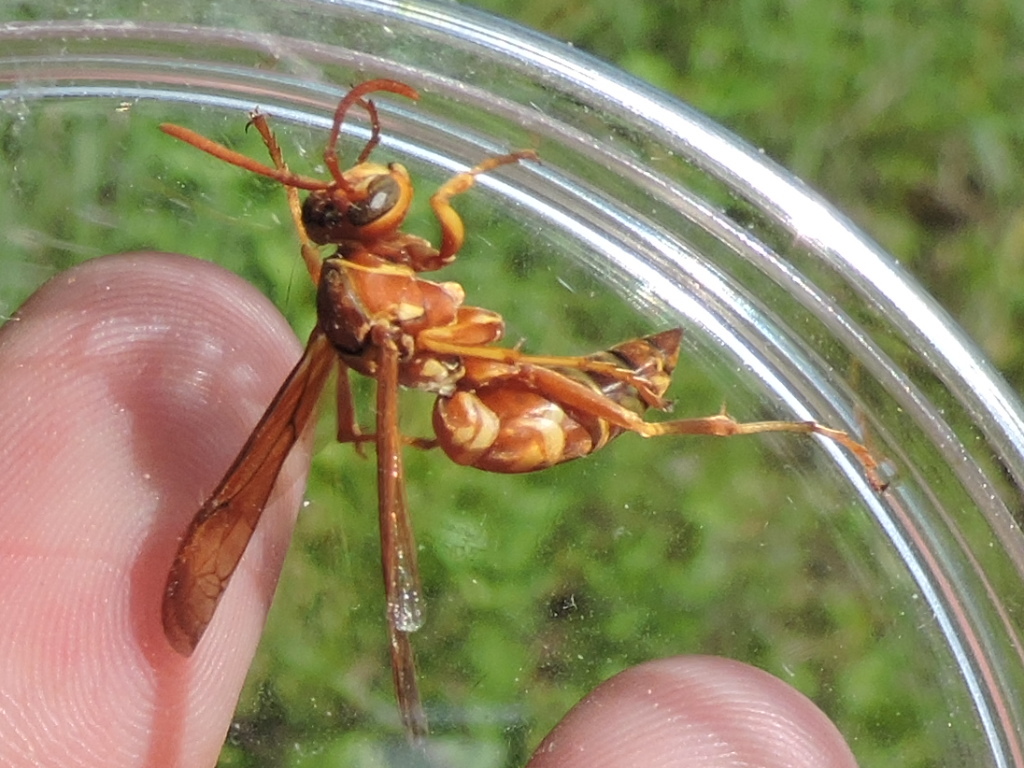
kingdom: Animalia
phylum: Arthropoda
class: Insecta
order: Hymenoptera
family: Eumenidae
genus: Polistes
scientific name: Polistes apachus
